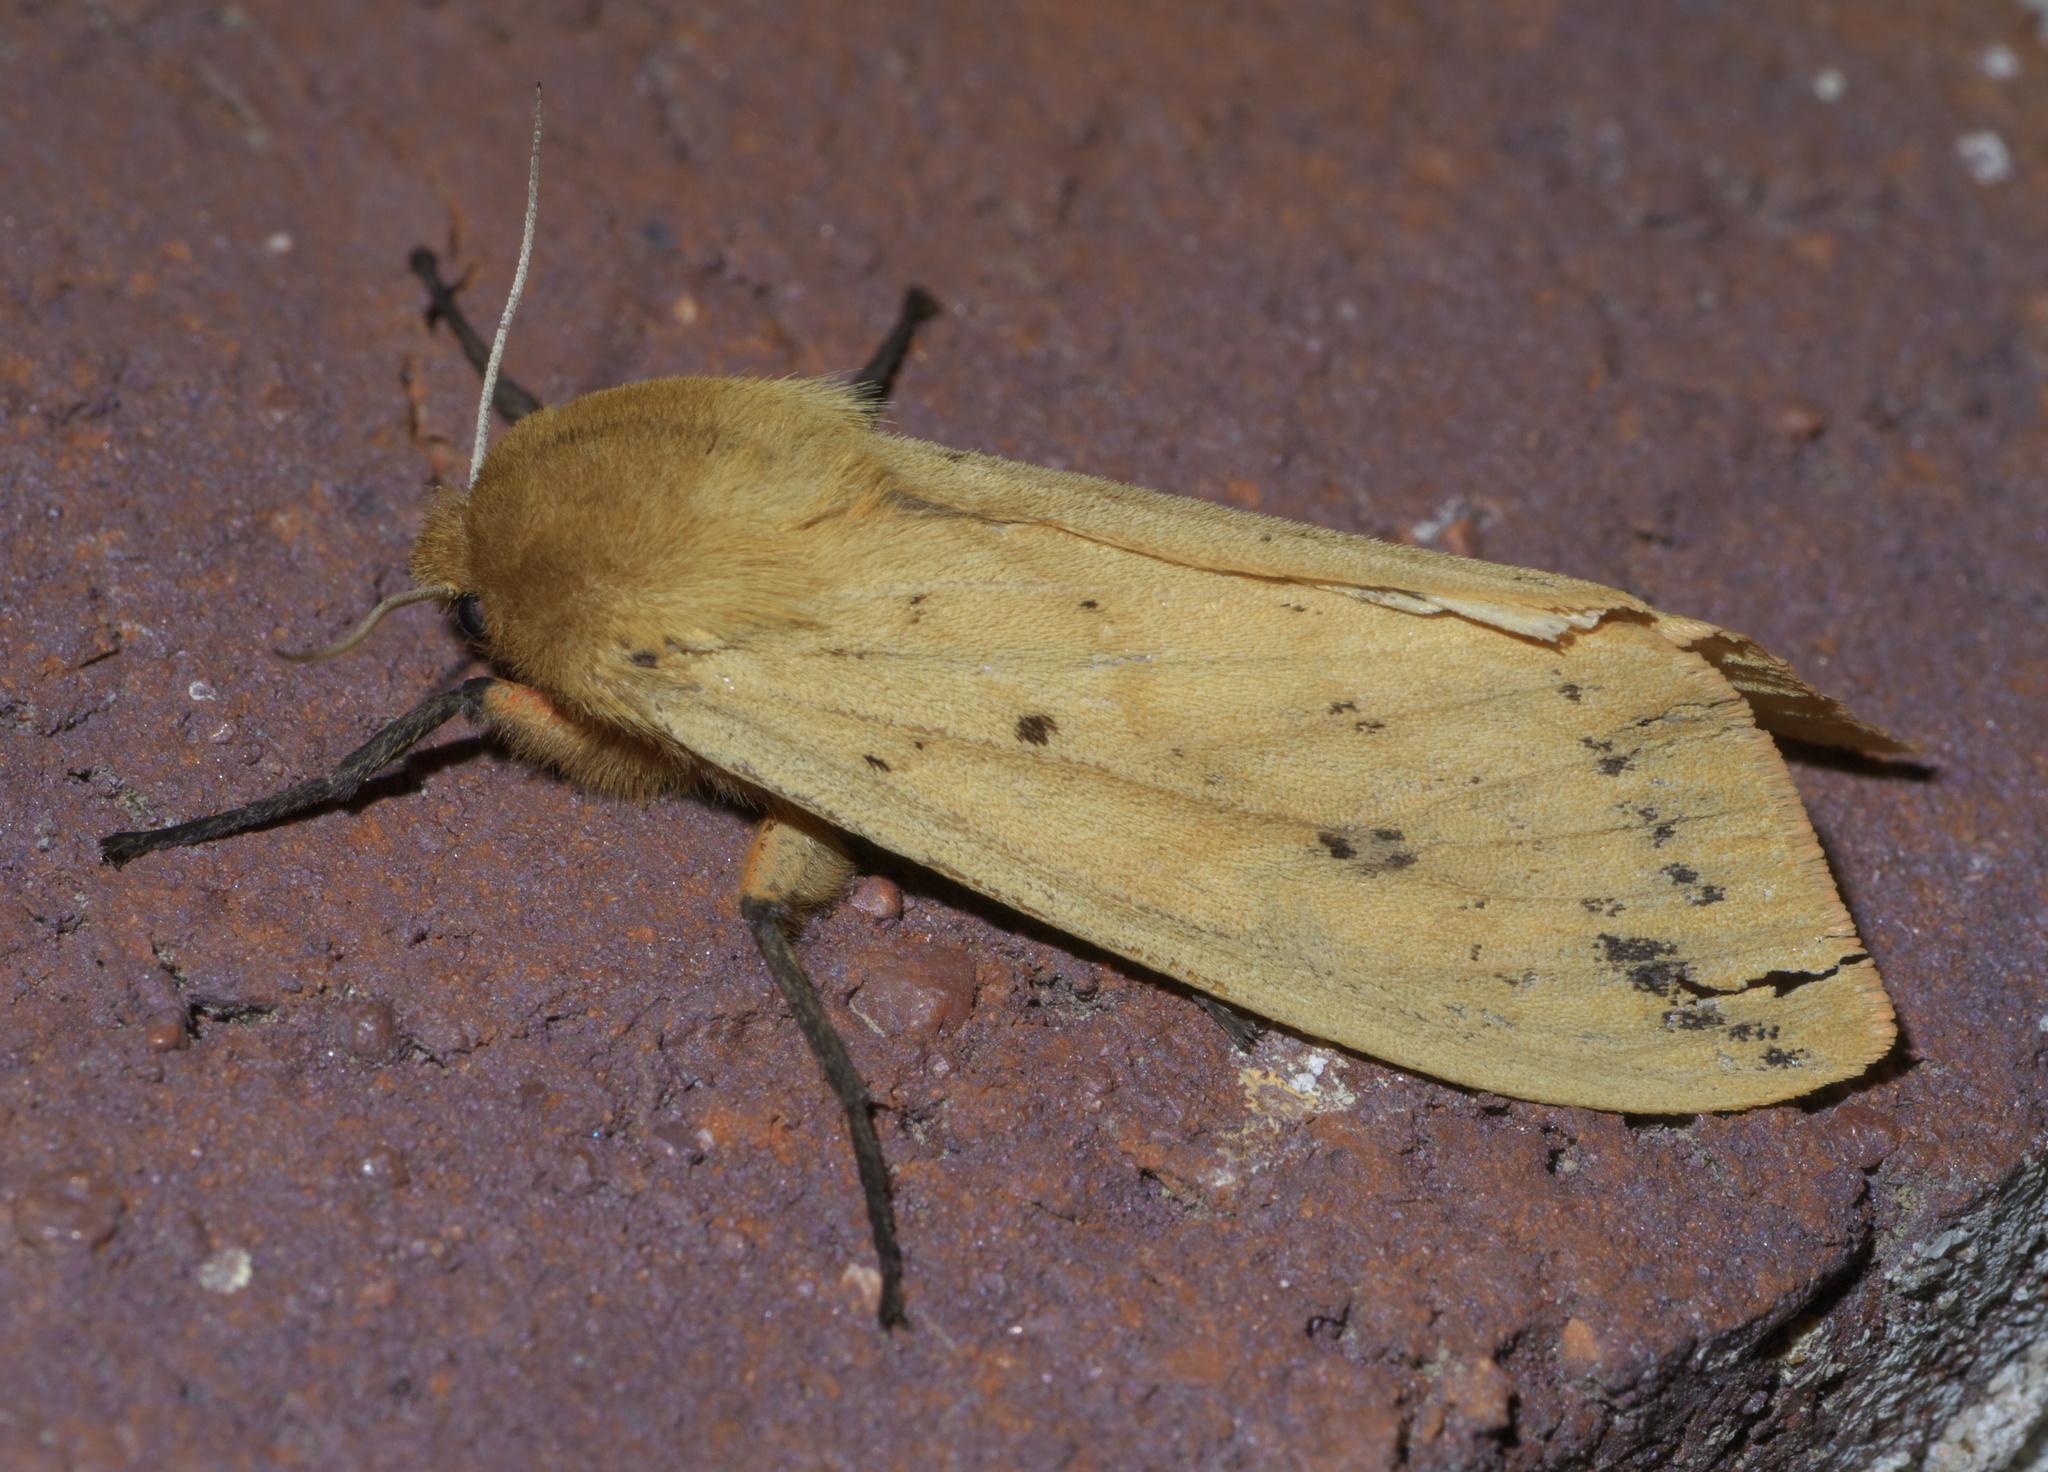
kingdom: Animalia
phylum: Arthropoda
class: Insecta
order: Lepidoptera
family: Erebidae
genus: Pyrrharctia
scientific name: Pyrrharctia isabella
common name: Isabella tiger moth
